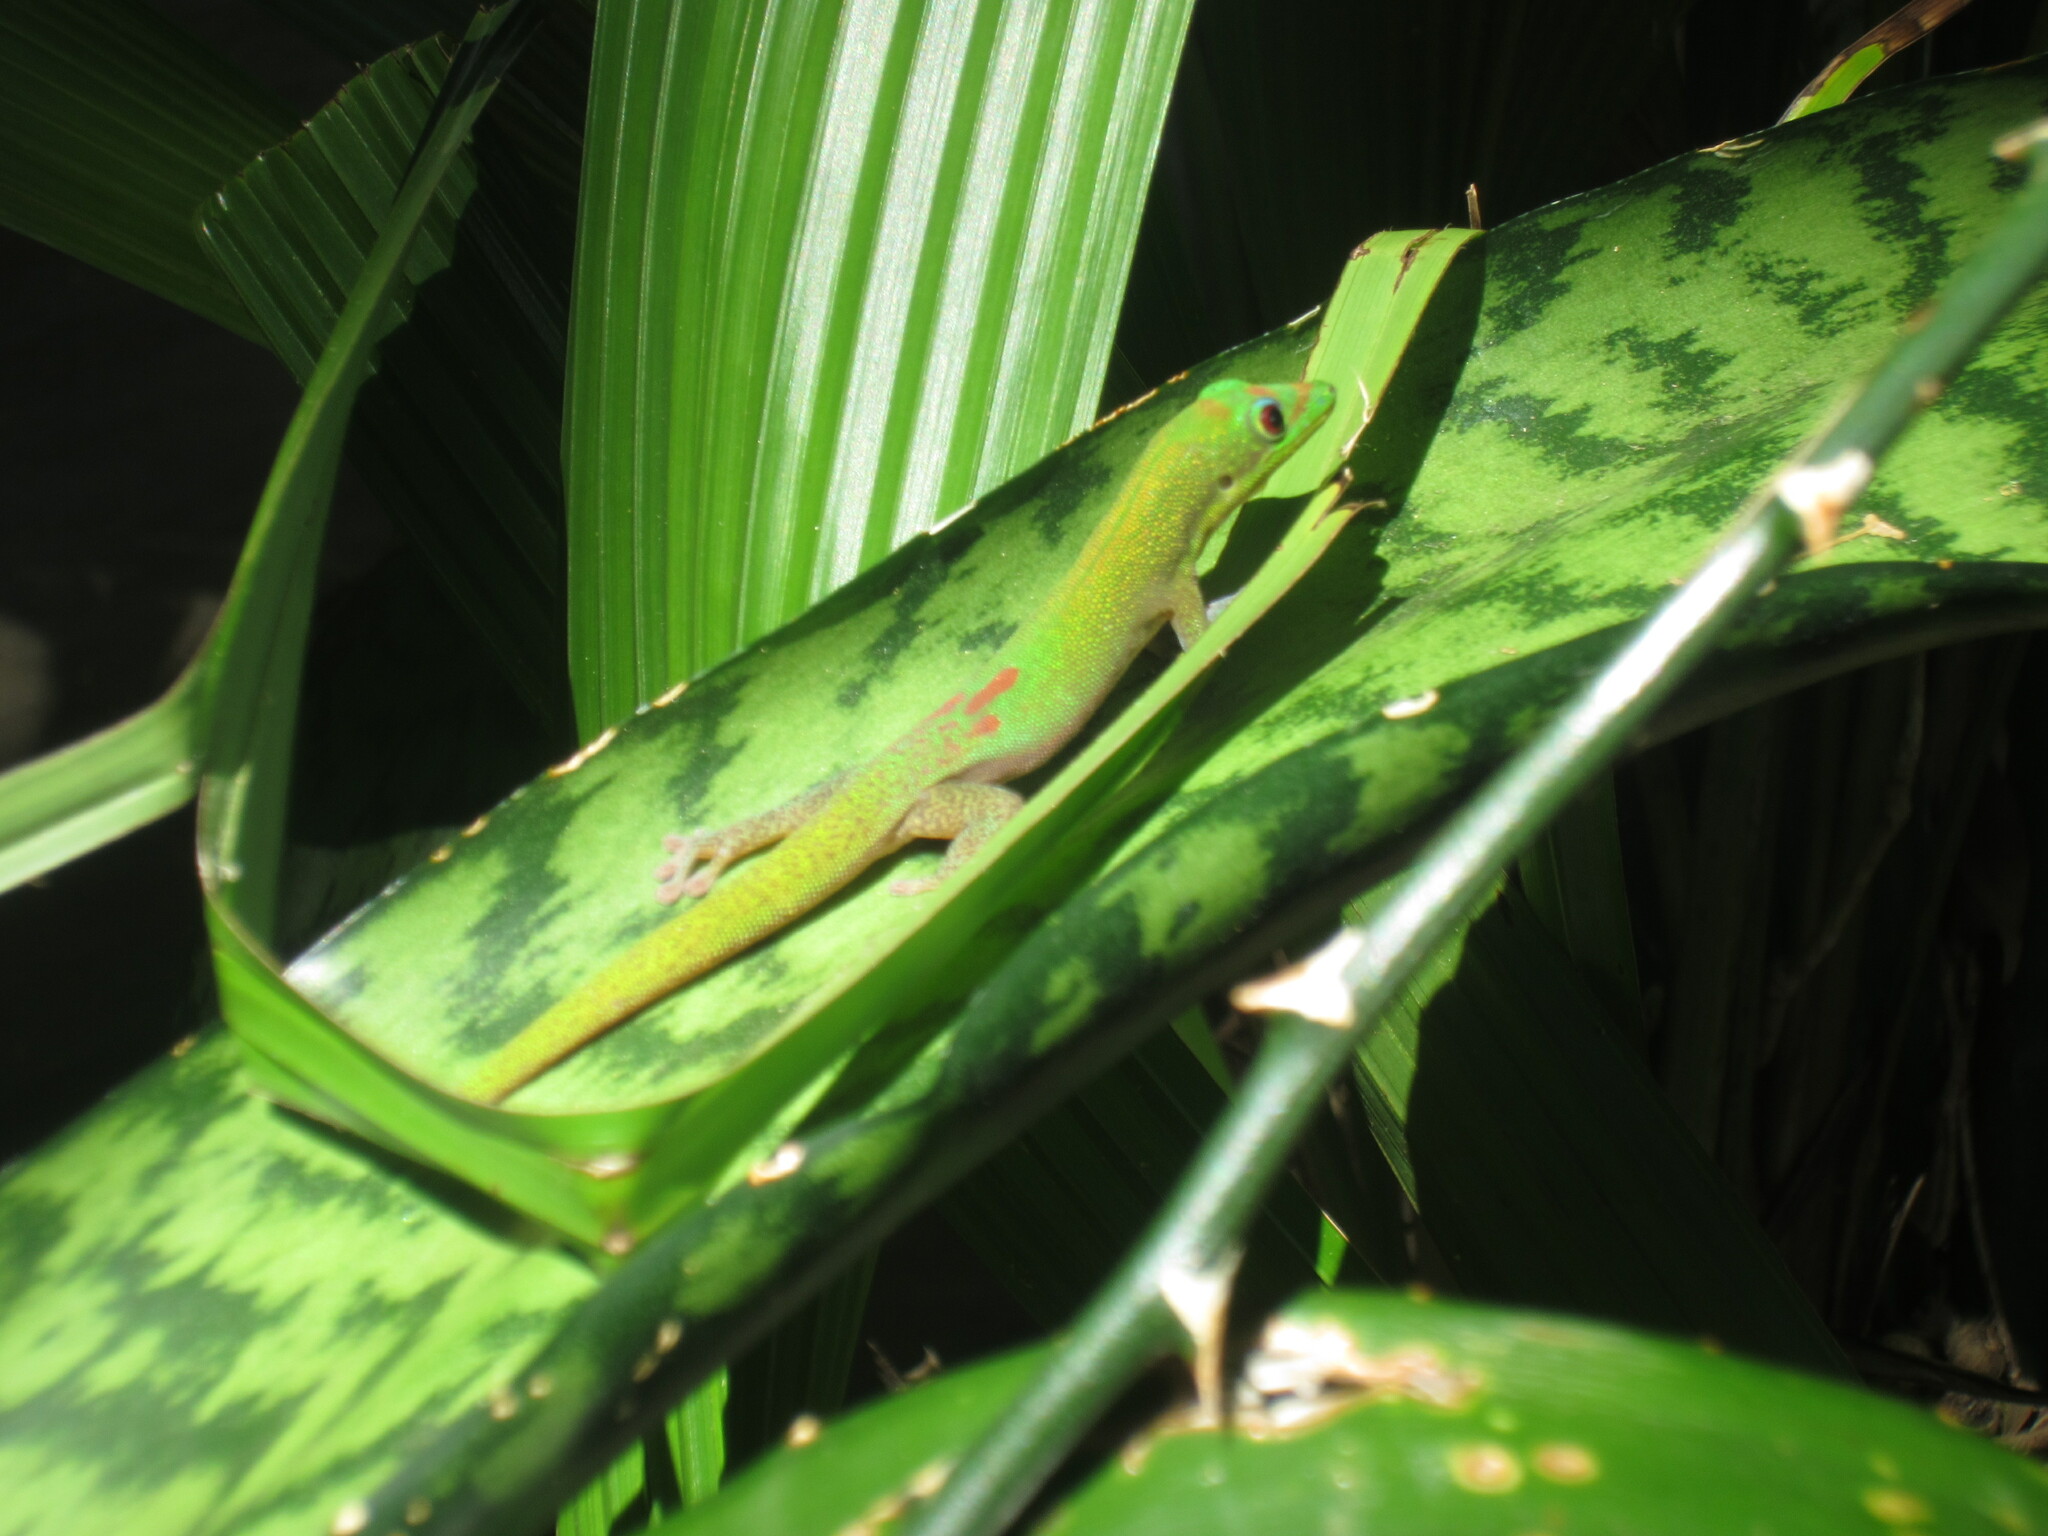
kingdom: Animalia
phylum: Chordata
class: Squamata
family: Gekkonidae
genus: Phelsuma
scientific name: Phelsuma laticauda
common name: Gold dust day gecko
